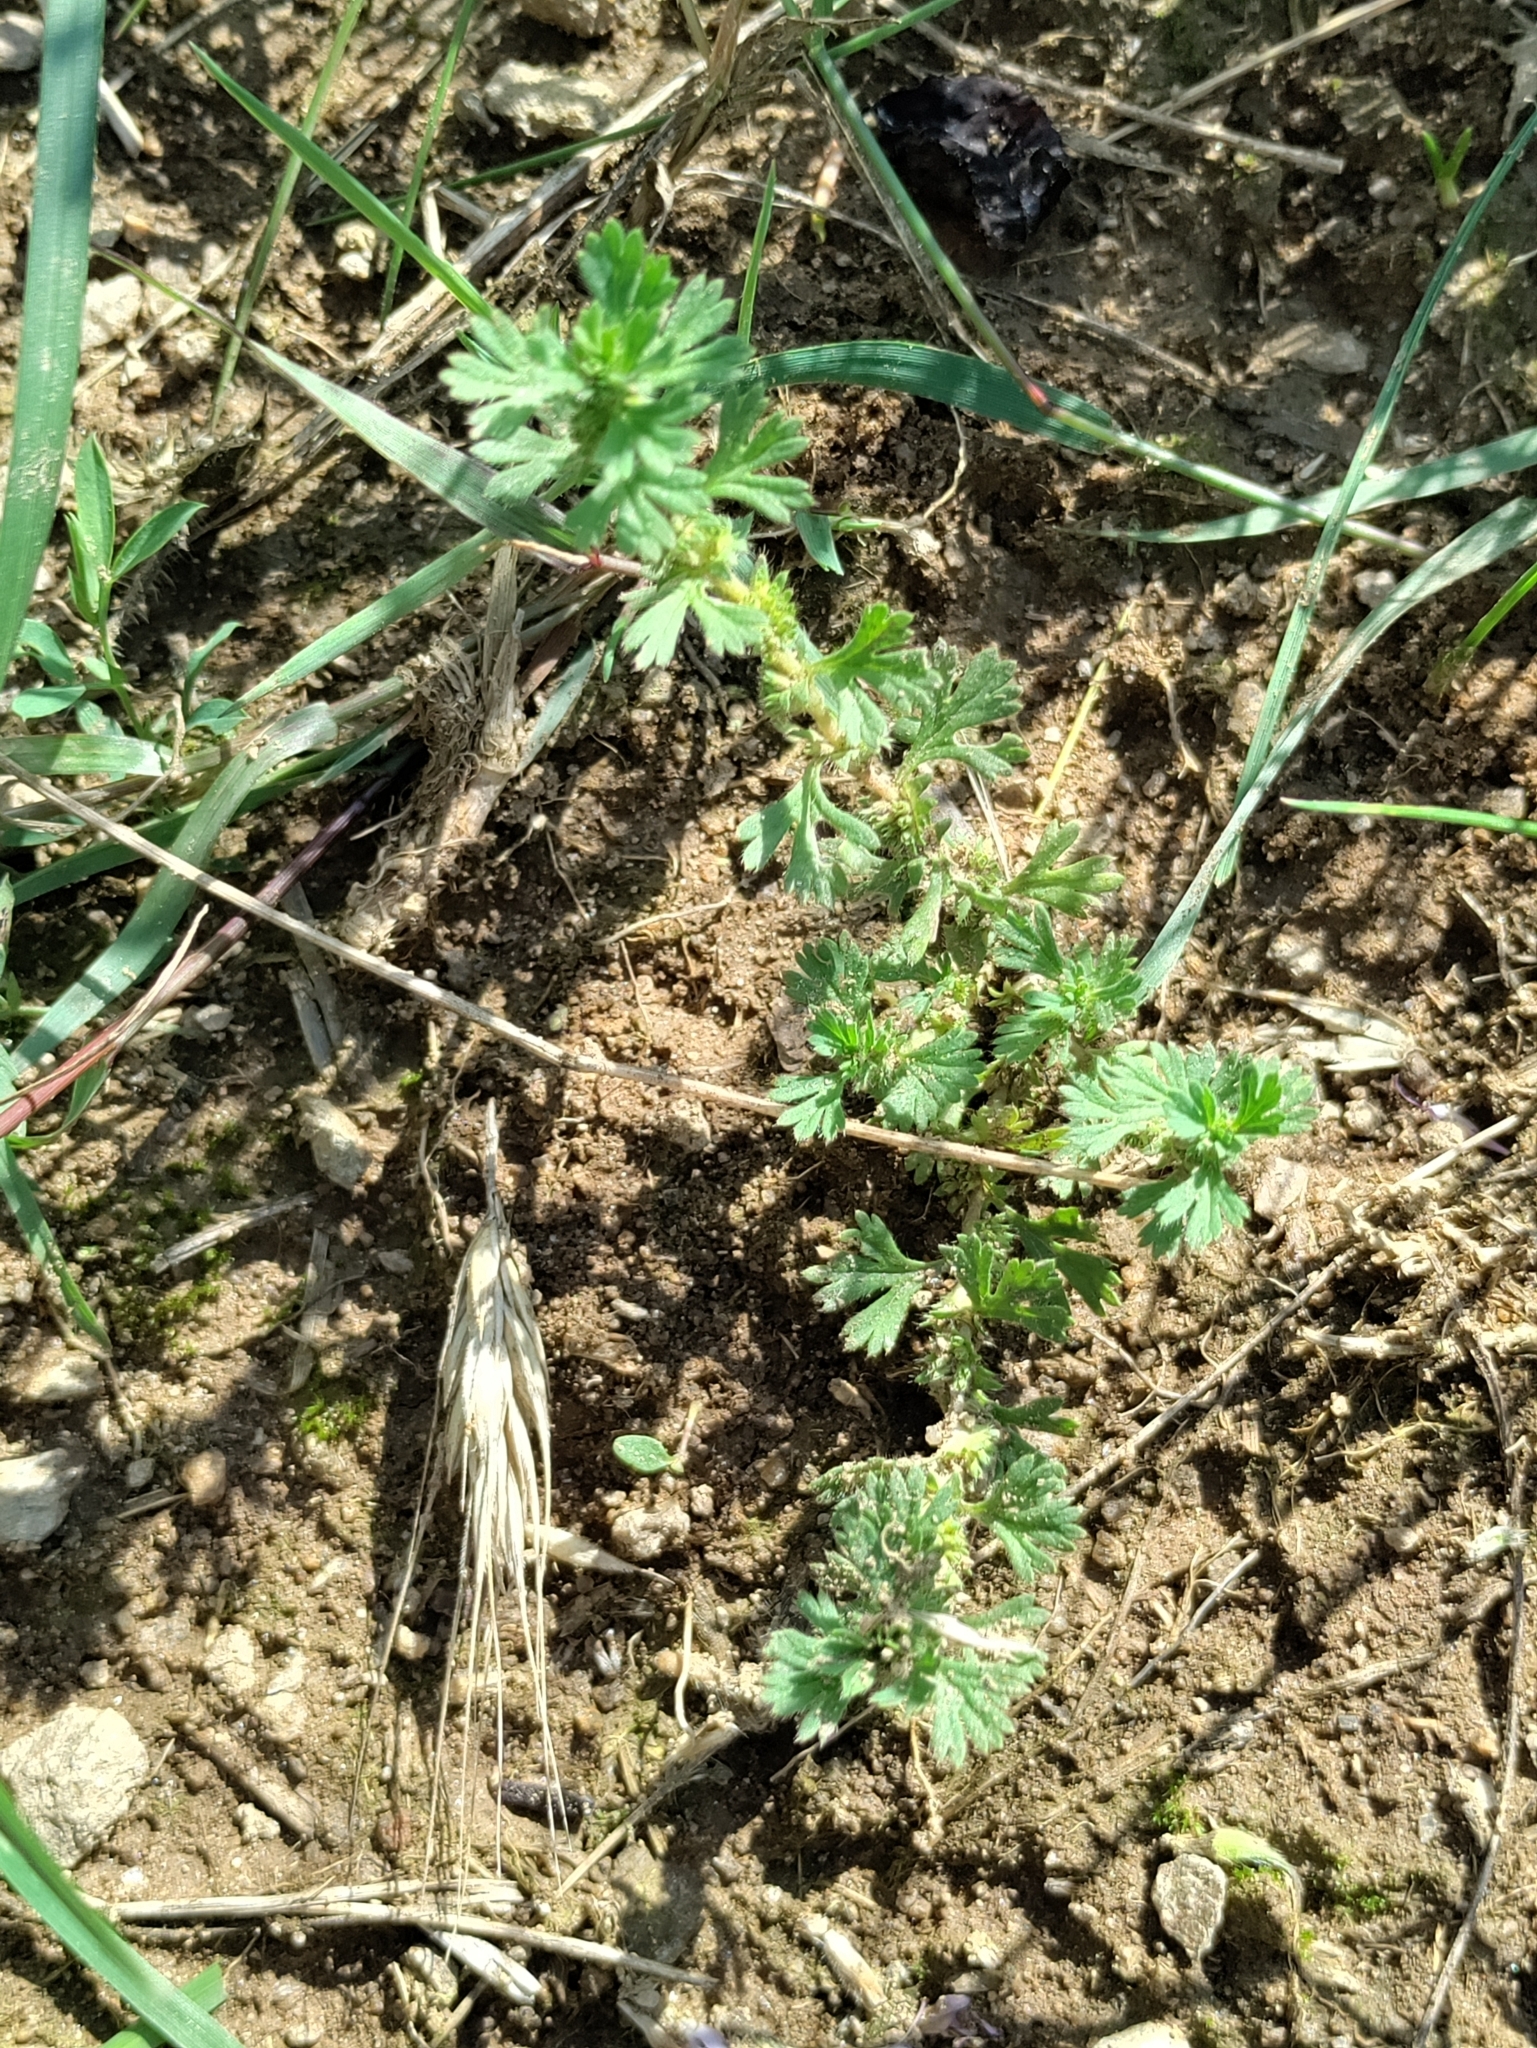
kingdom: Plantae
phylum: Tracheophyta
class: Magnoliopsida
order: Rosales
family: Rosaceae
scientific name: Rosaceae
